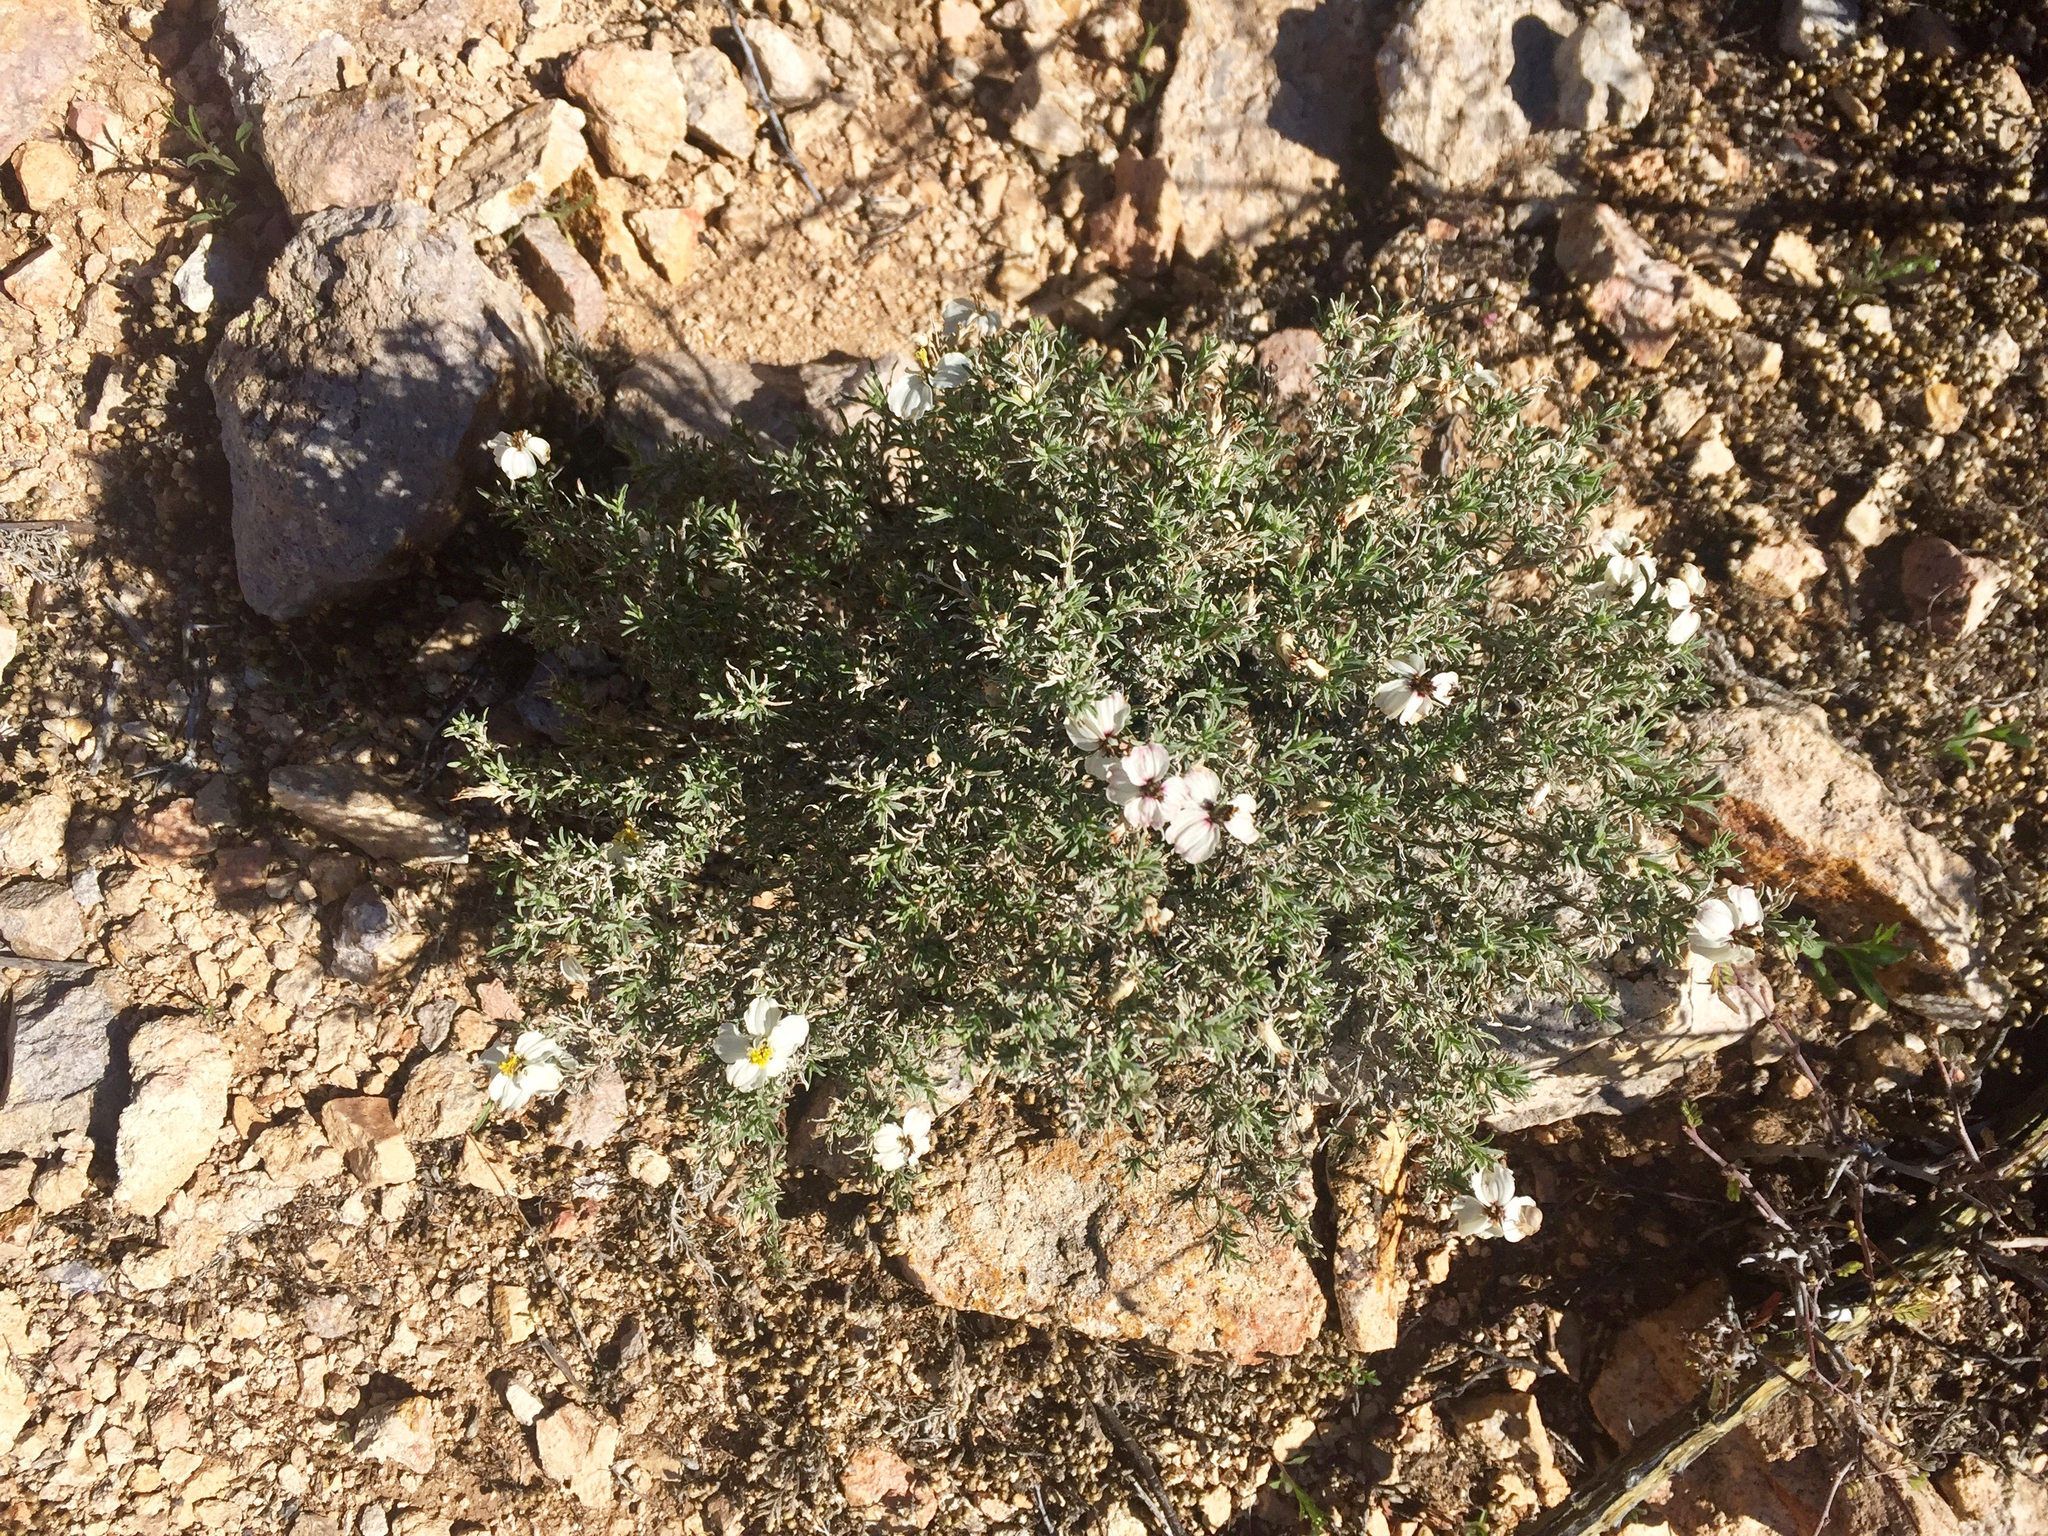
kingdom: Plantae
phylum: Tracheophyta
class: Magnoliopsida
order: Asterales
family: Asteraceae
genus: Zinnia
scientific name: Zinnia acerosa
